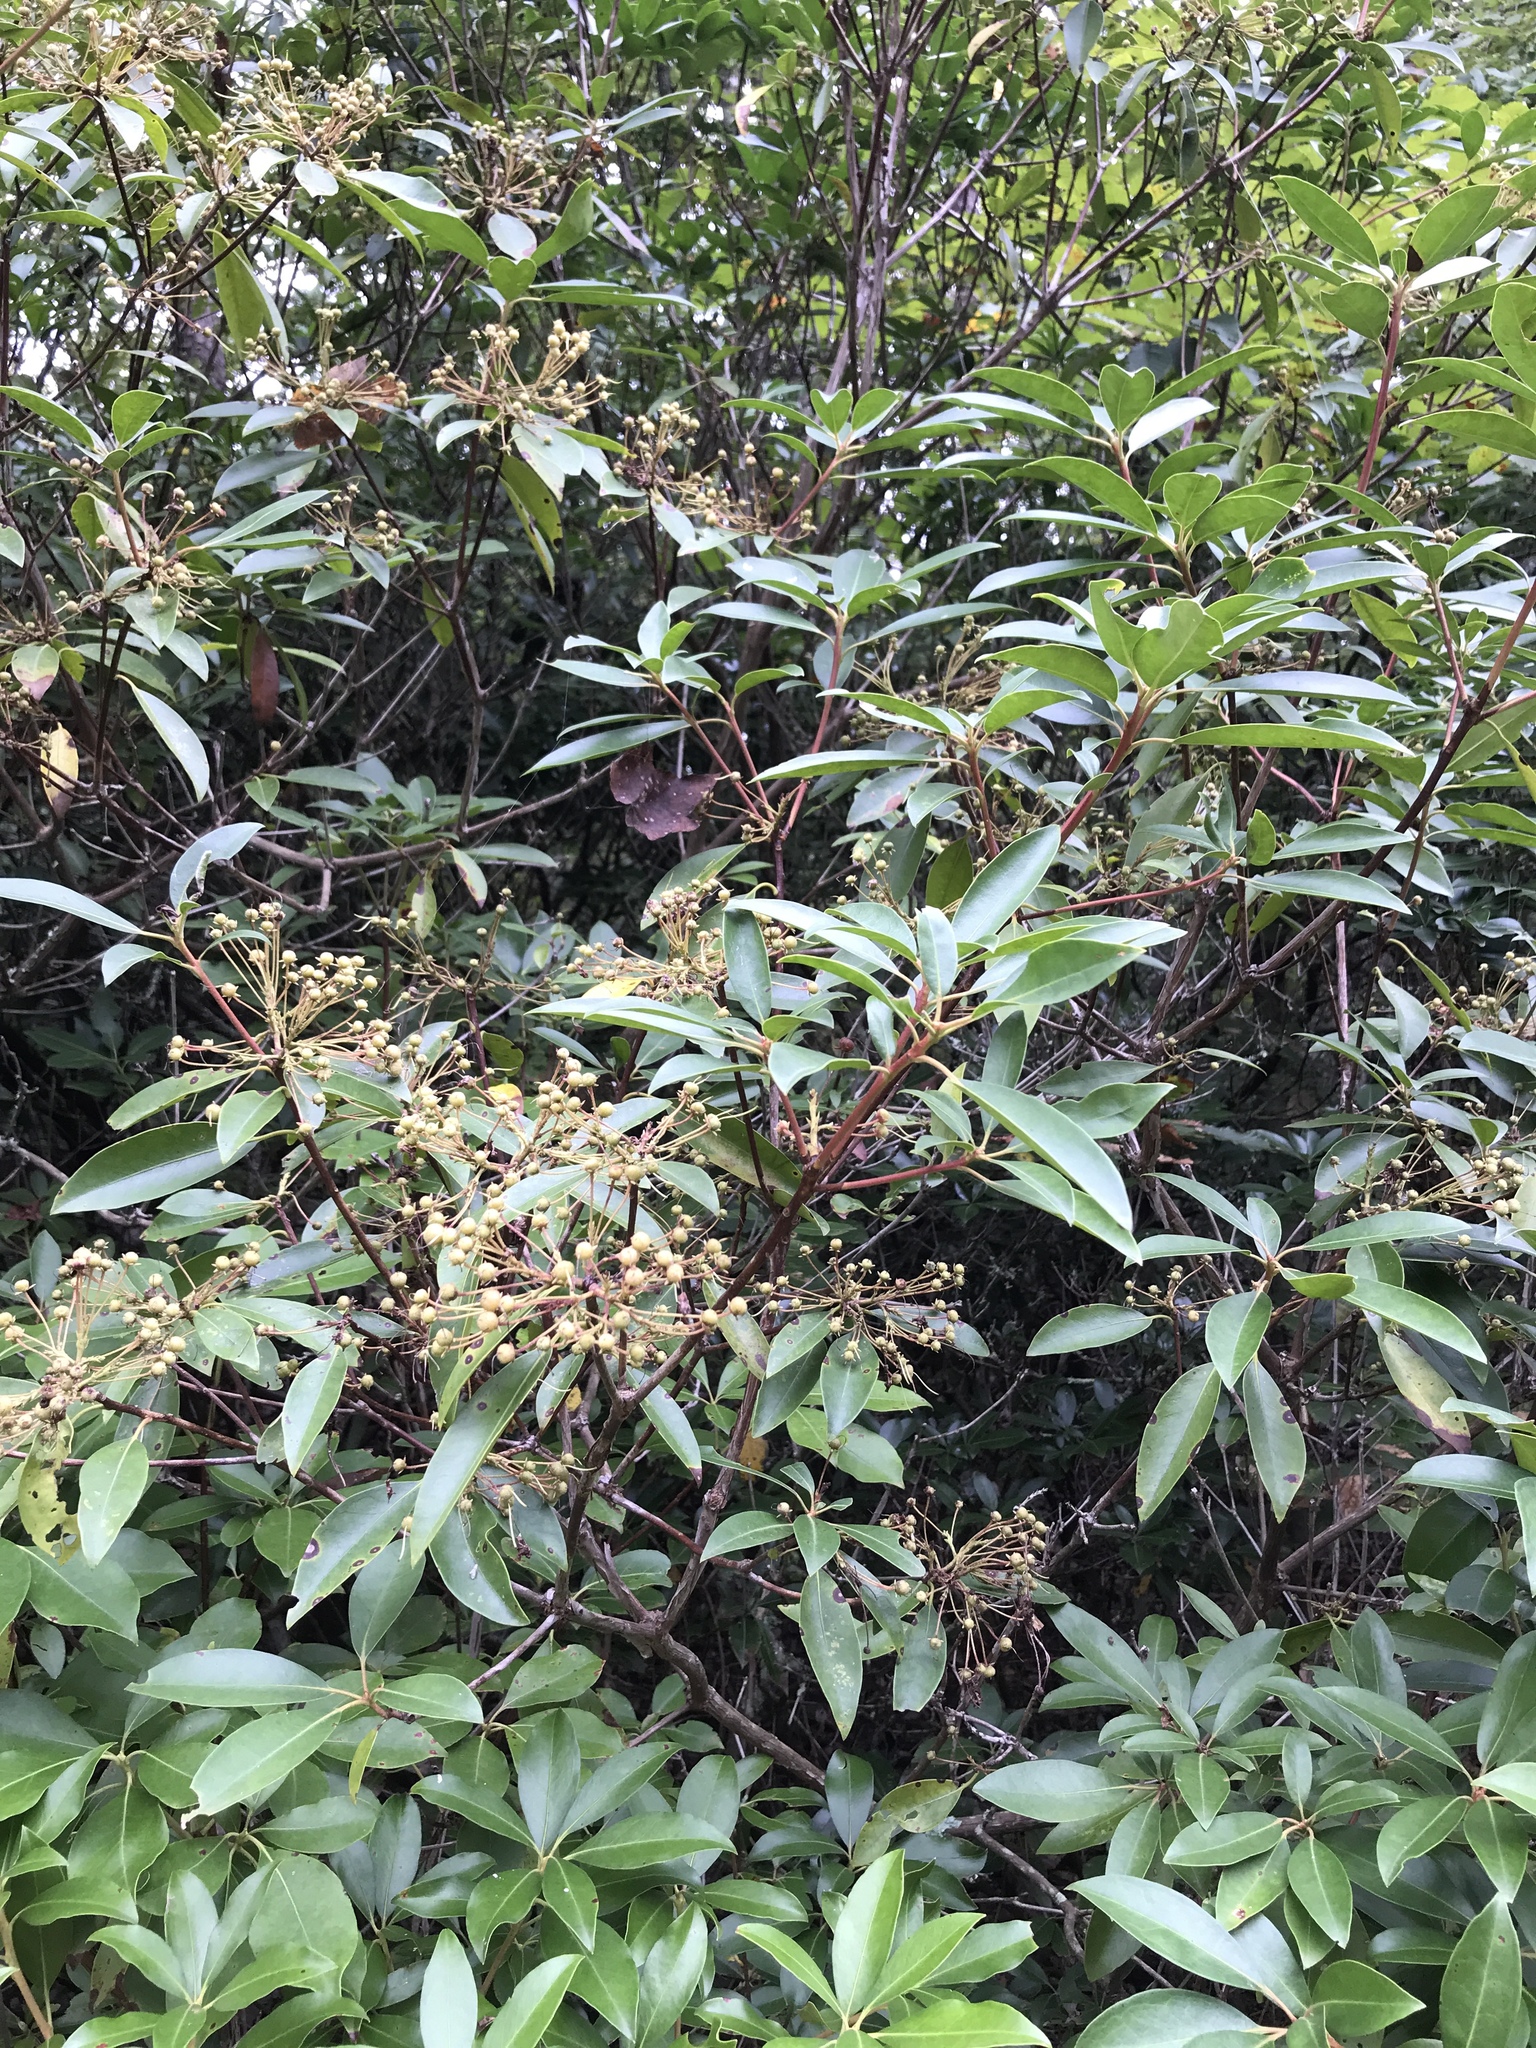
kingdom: Plantae
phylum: Tracheophyta
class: Magnoliopsida
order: Ericales
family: Ericaceae
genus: Kalmia
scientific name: Kalmia latifolia
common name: Mountain-laurel
